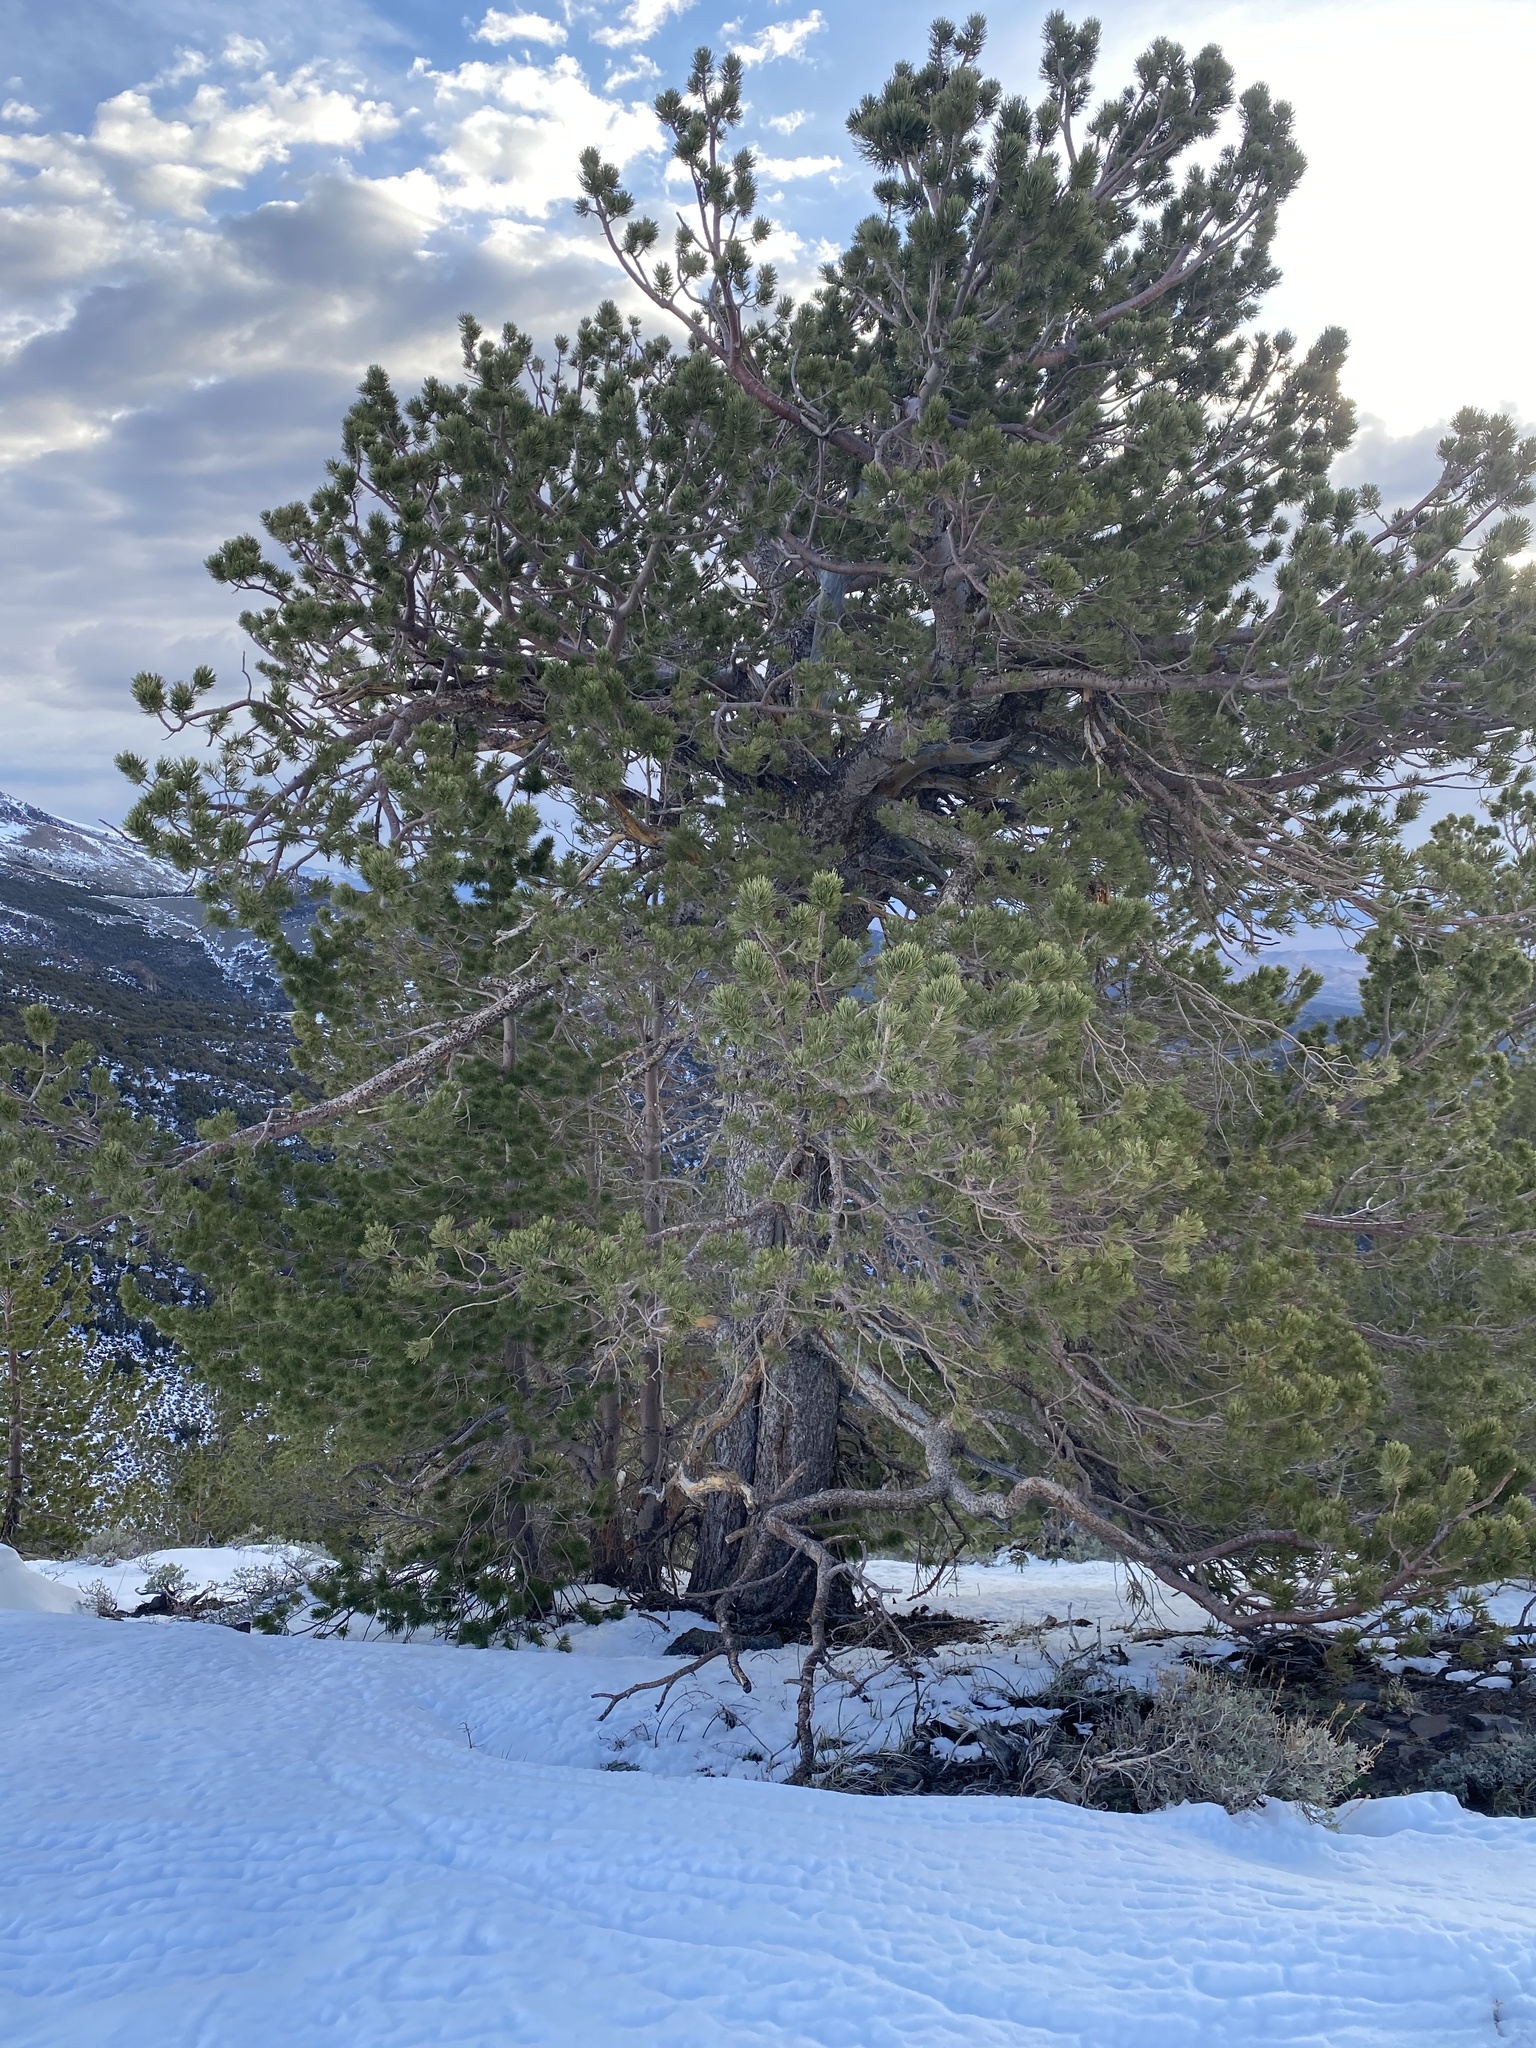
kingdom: Plantae
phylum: Tracheophyta
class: Pinopsida
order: Pinales
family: Pinaceae
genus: Pinus
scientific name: Pinus flexilis
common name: Limber pine
